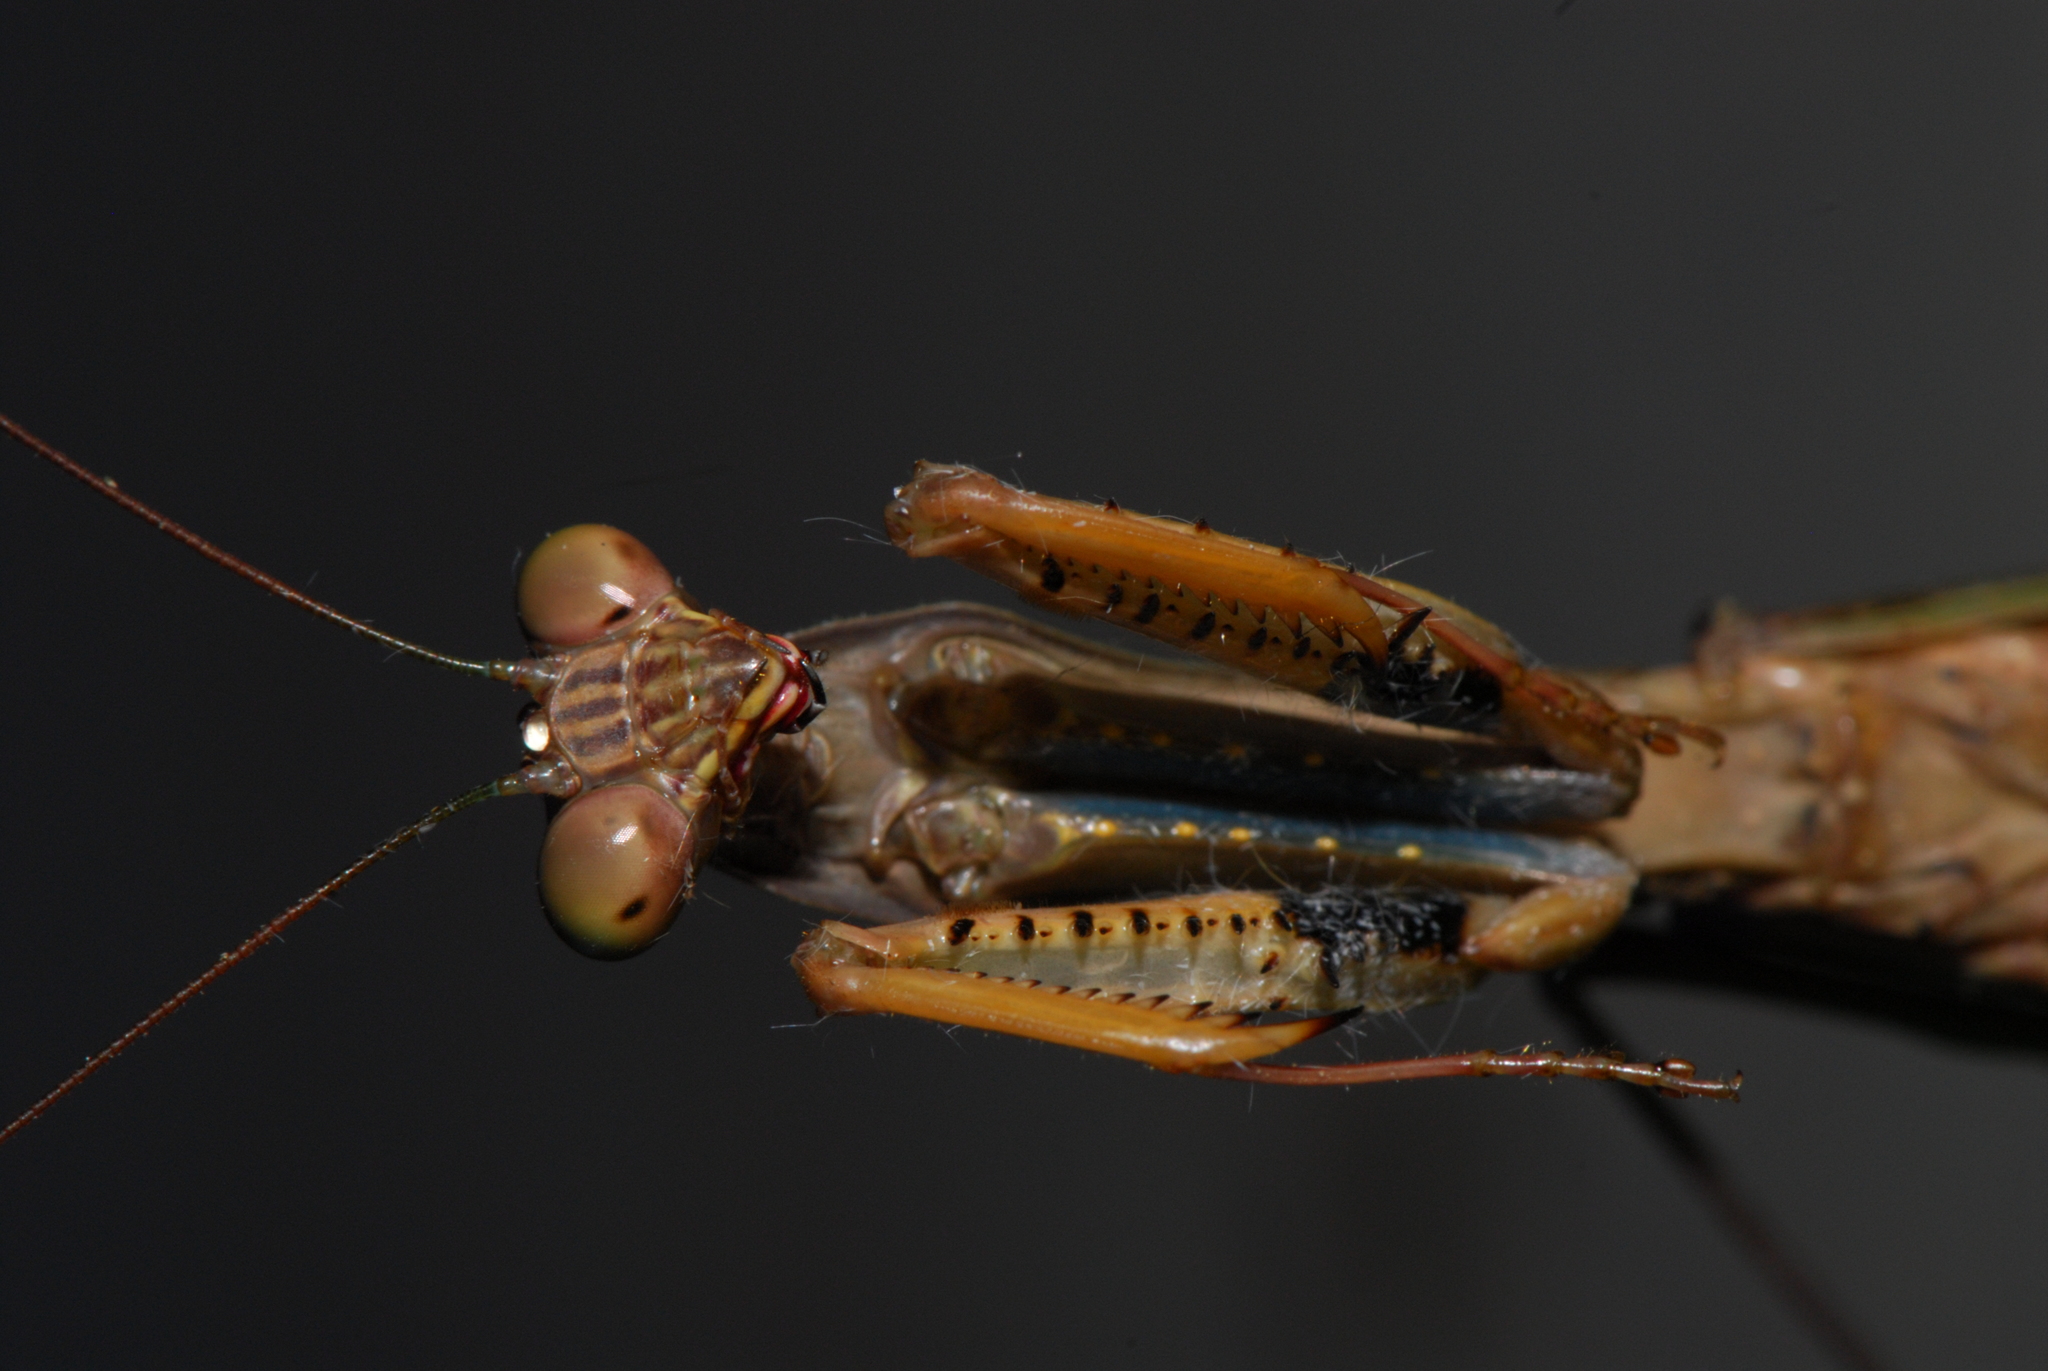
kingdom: Animalia
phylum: Arthropoda
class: Insecta
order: Mantodea
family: Mantidae
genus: Polyspilota
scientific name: Polyspilota aeruginosa
